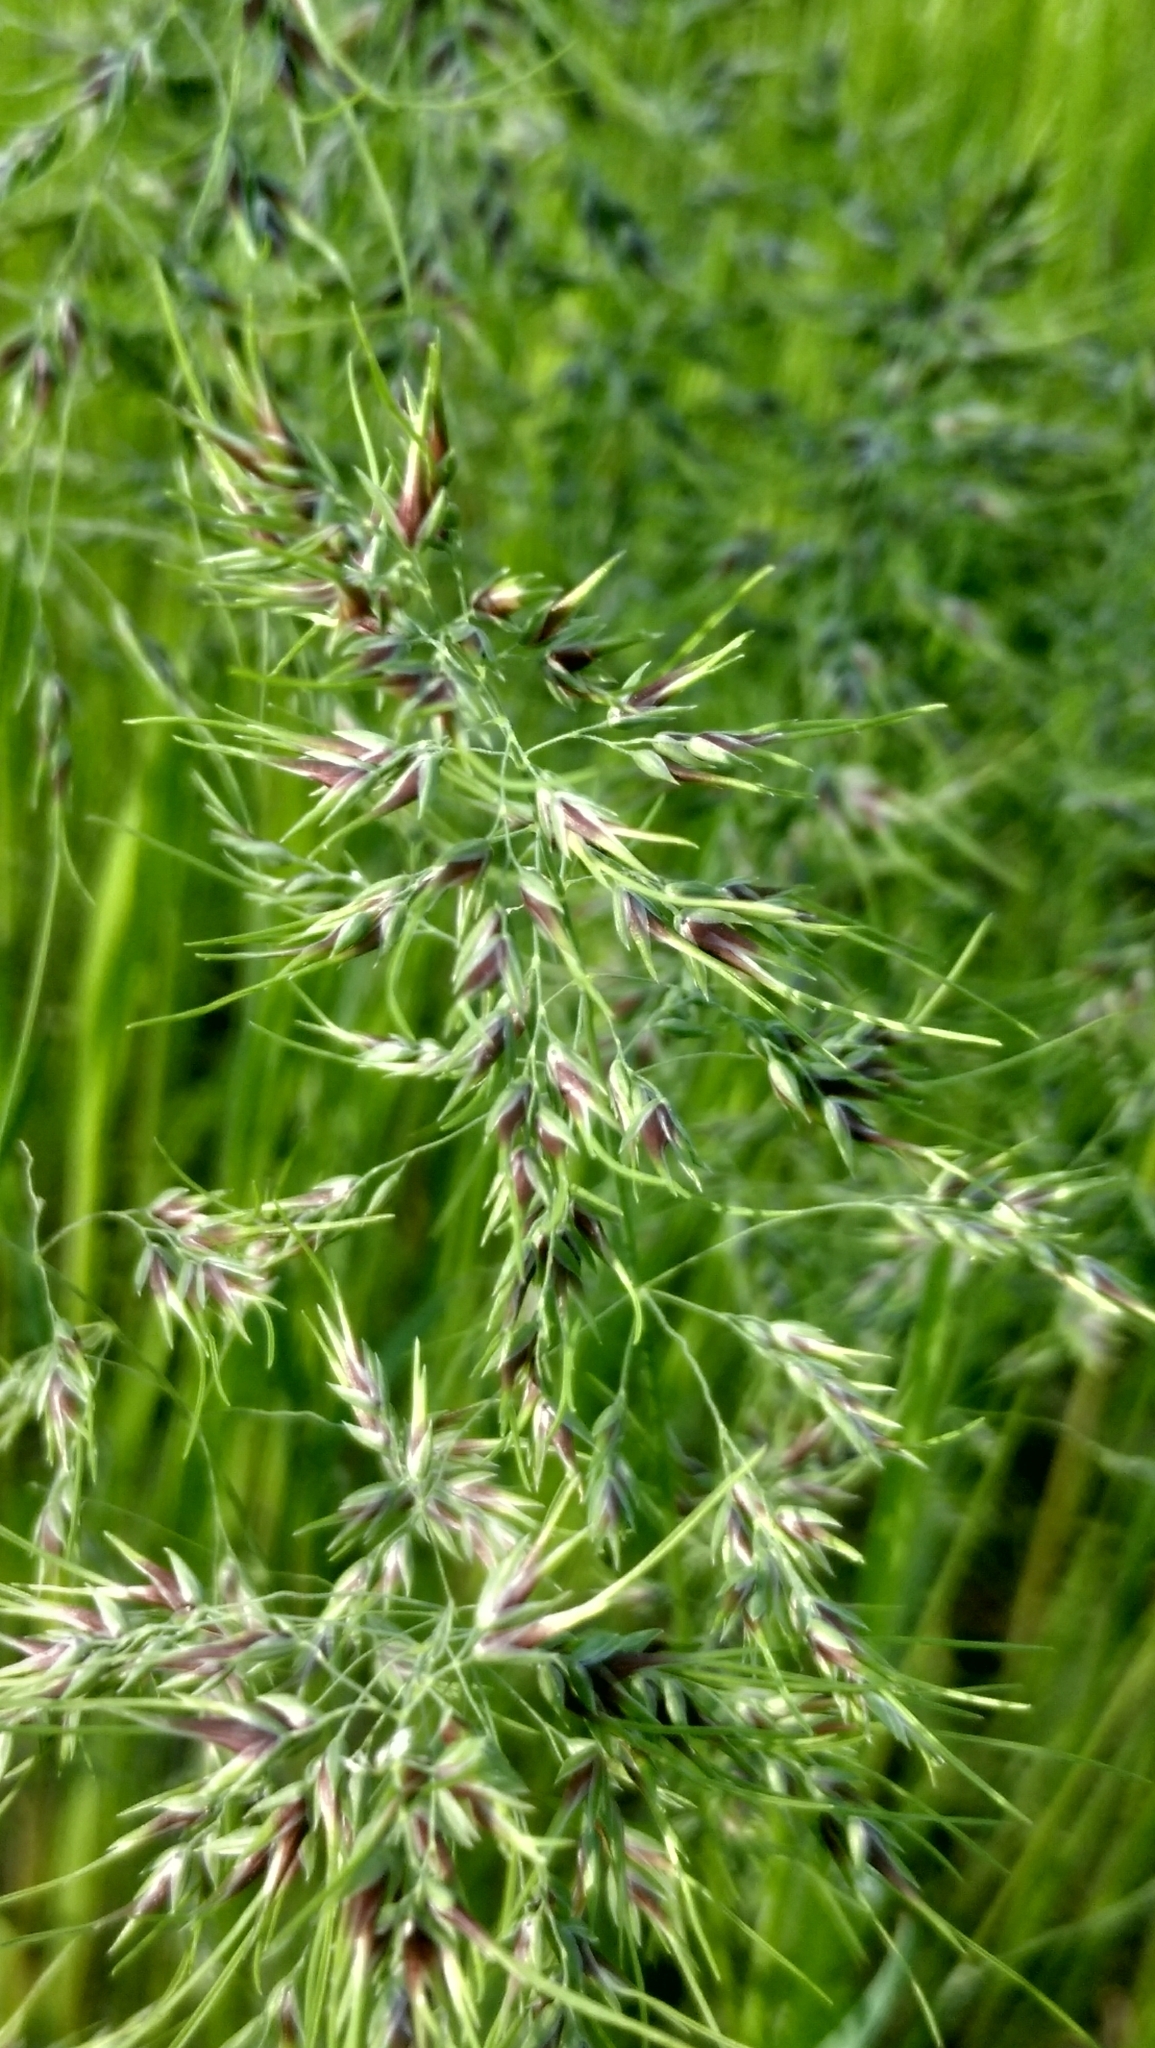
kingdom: Plantae
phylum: Tracheophyta
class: Liliopsida
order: Poales
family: Poaceae
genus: Poa
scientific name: Poa bulbosa
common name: Bulbous bluegrass
